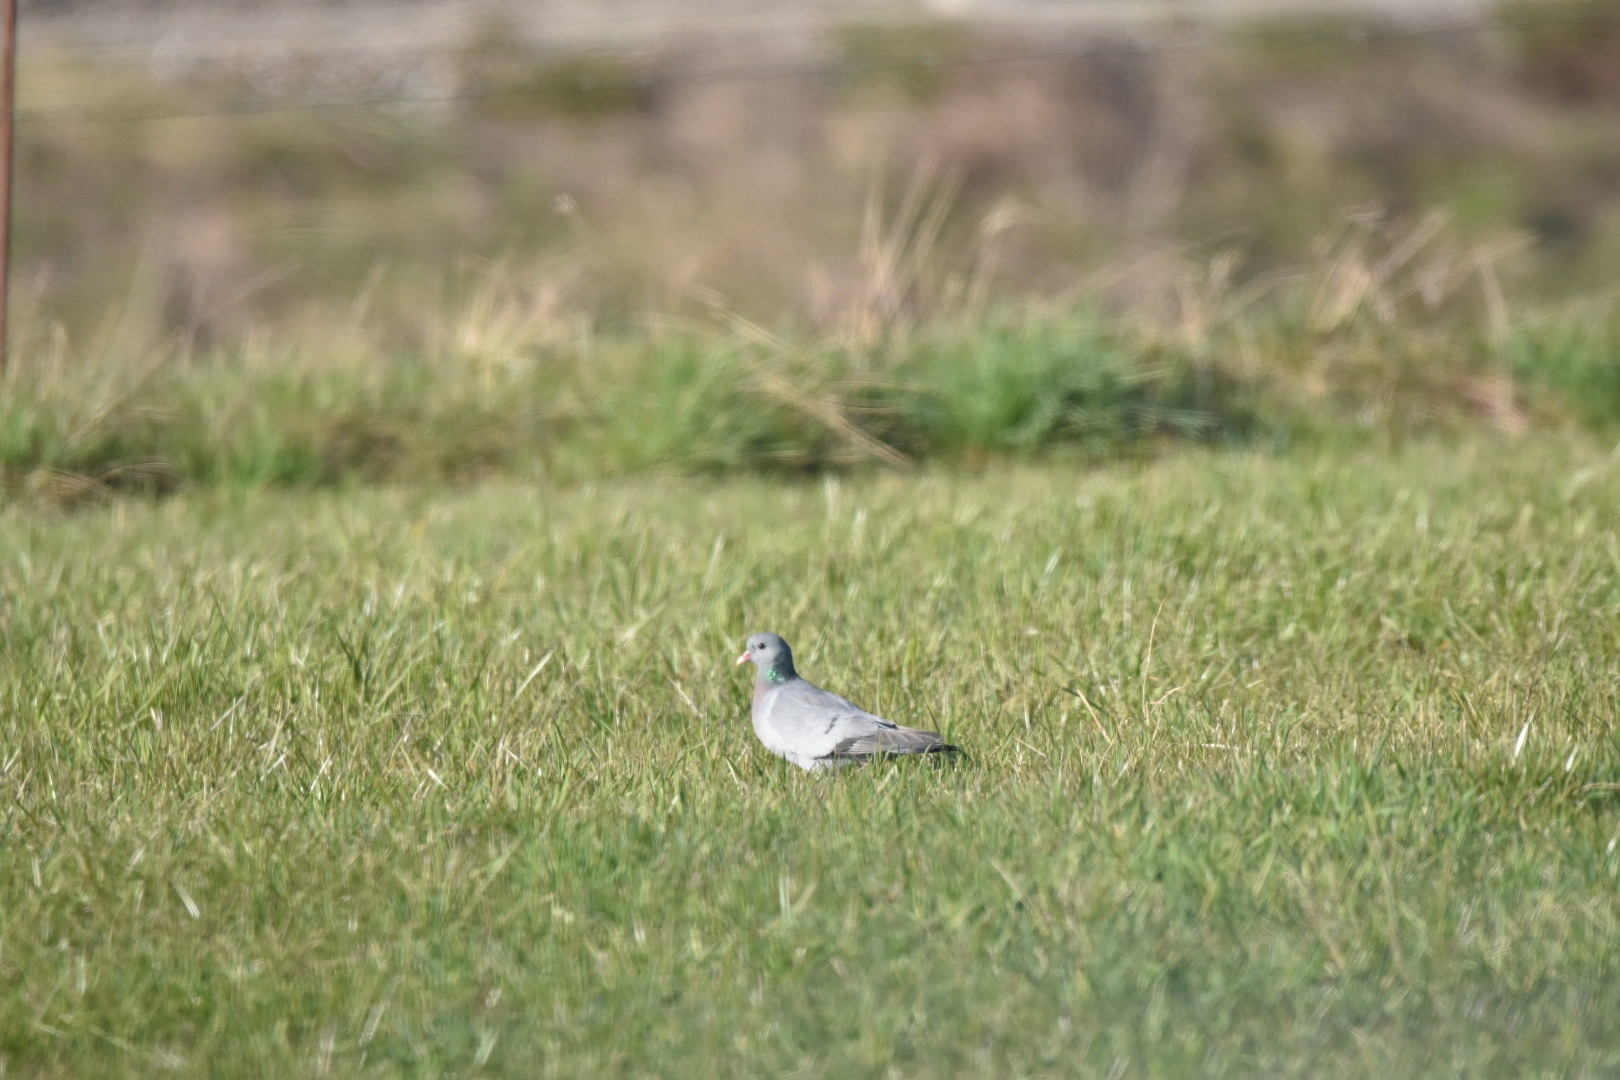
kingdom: Animalia
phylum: Chordata
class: Aves
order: Columbiformes
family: Columbidae
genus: Columba
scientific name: Columba oenas
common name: Stock dove
